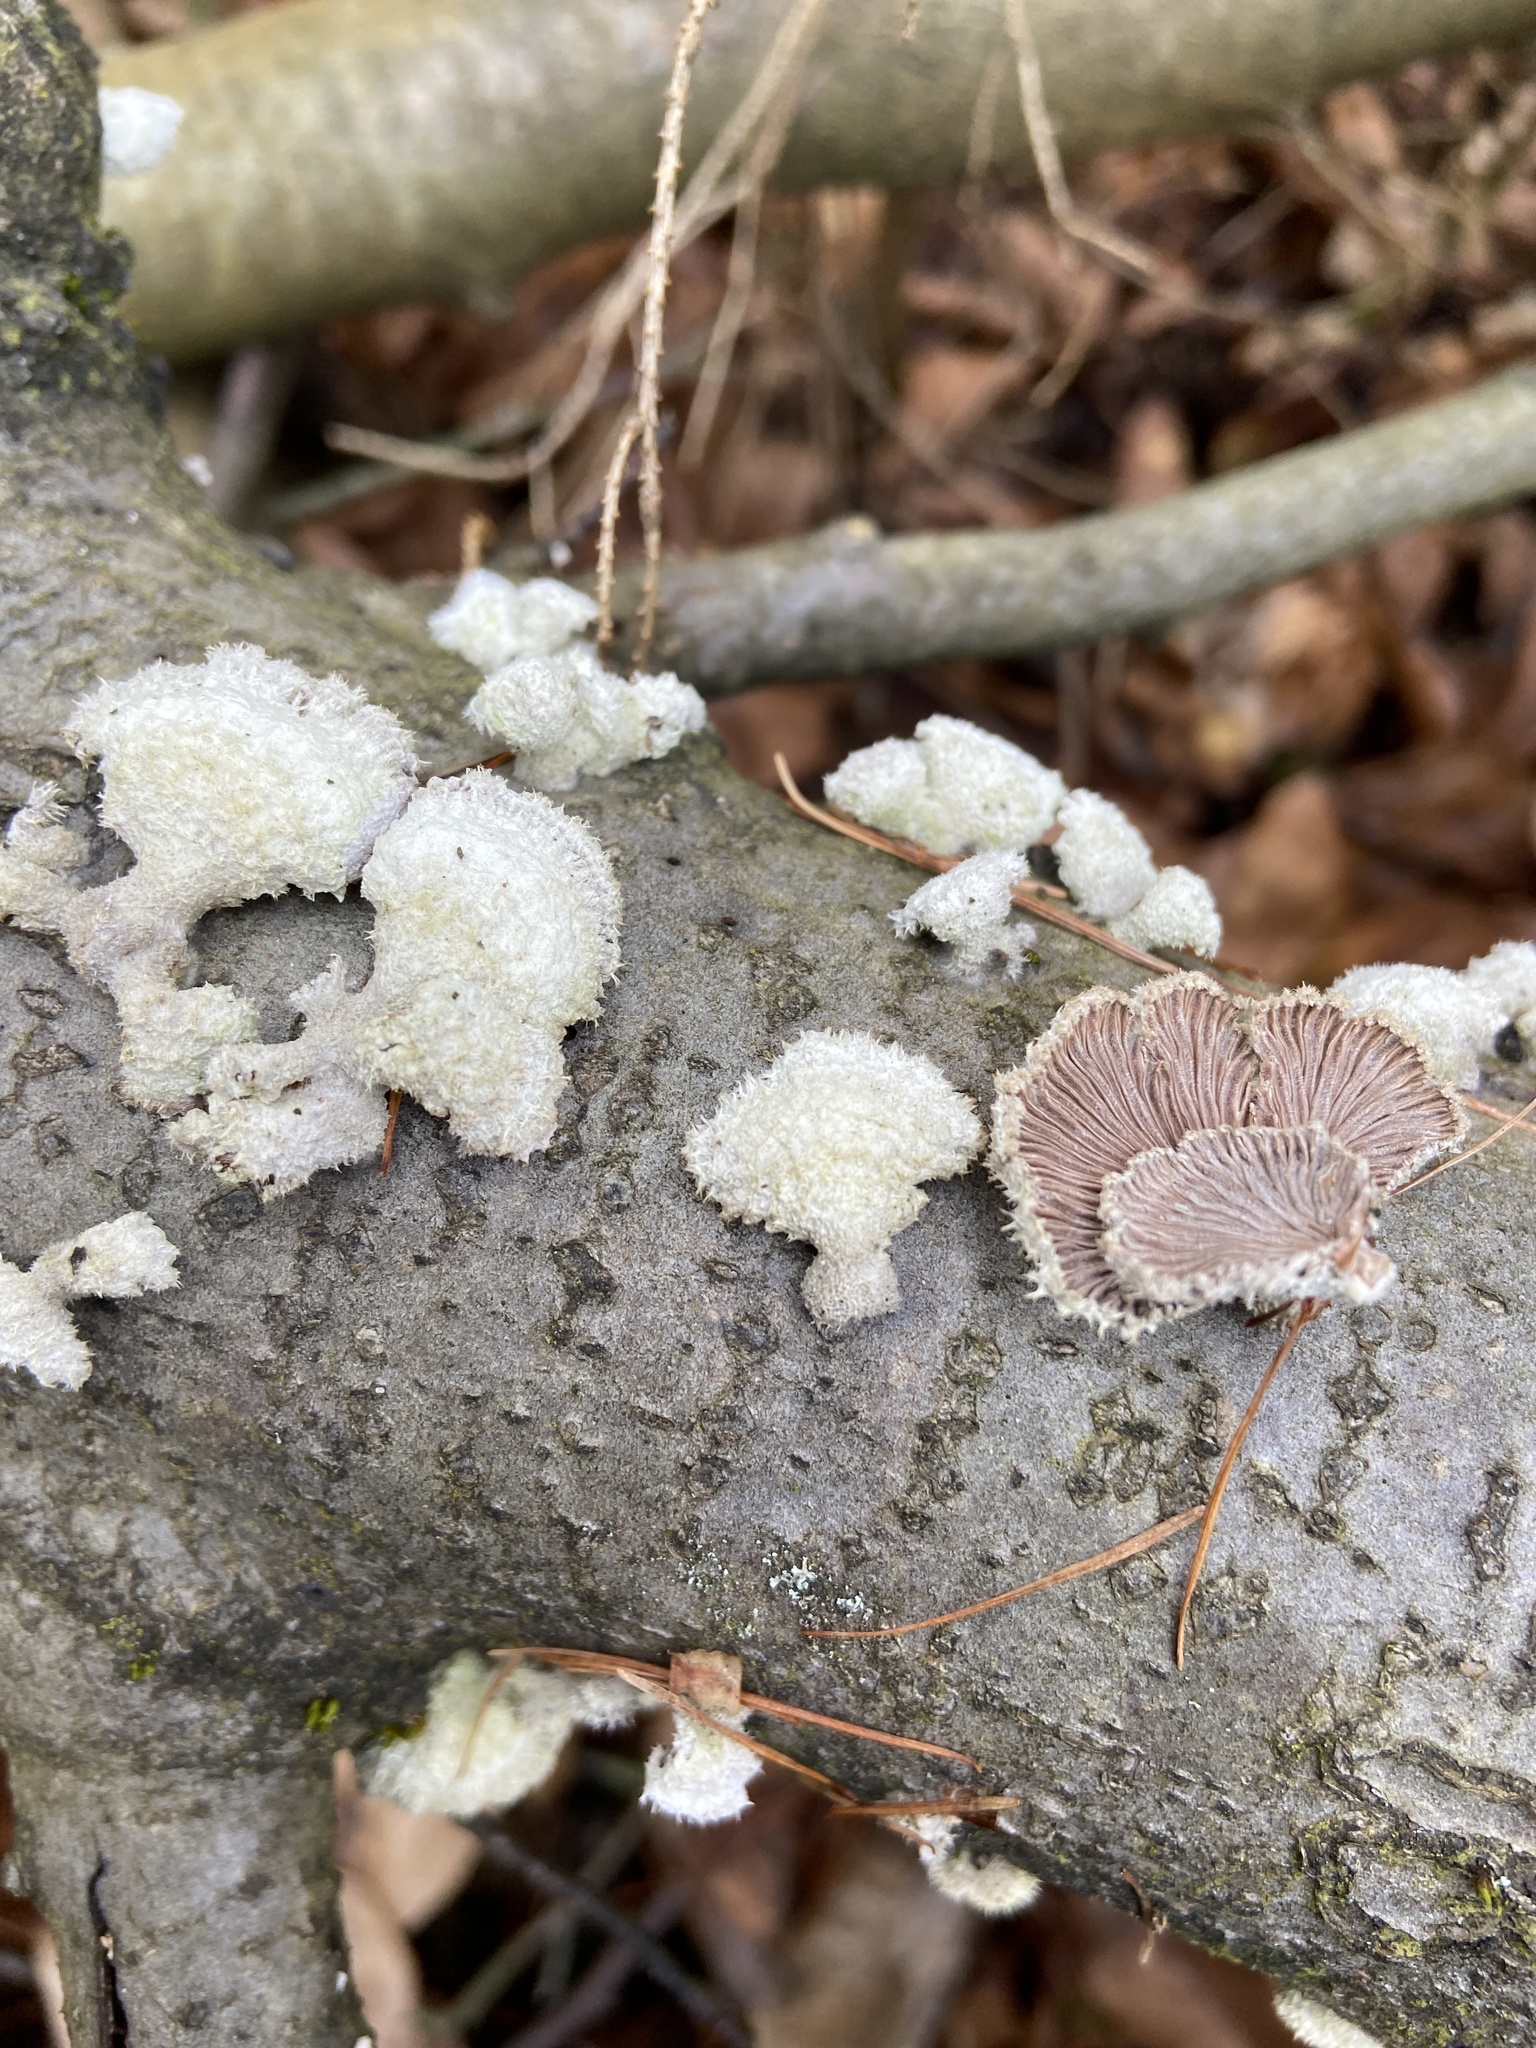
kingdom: Fungi
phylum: Basidiomycota
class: Agaricomycetes
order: Agaricales
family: Schizophyllaceae
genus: Schizophyllum
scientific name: Schizophyllum commune
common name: Common porecrust
